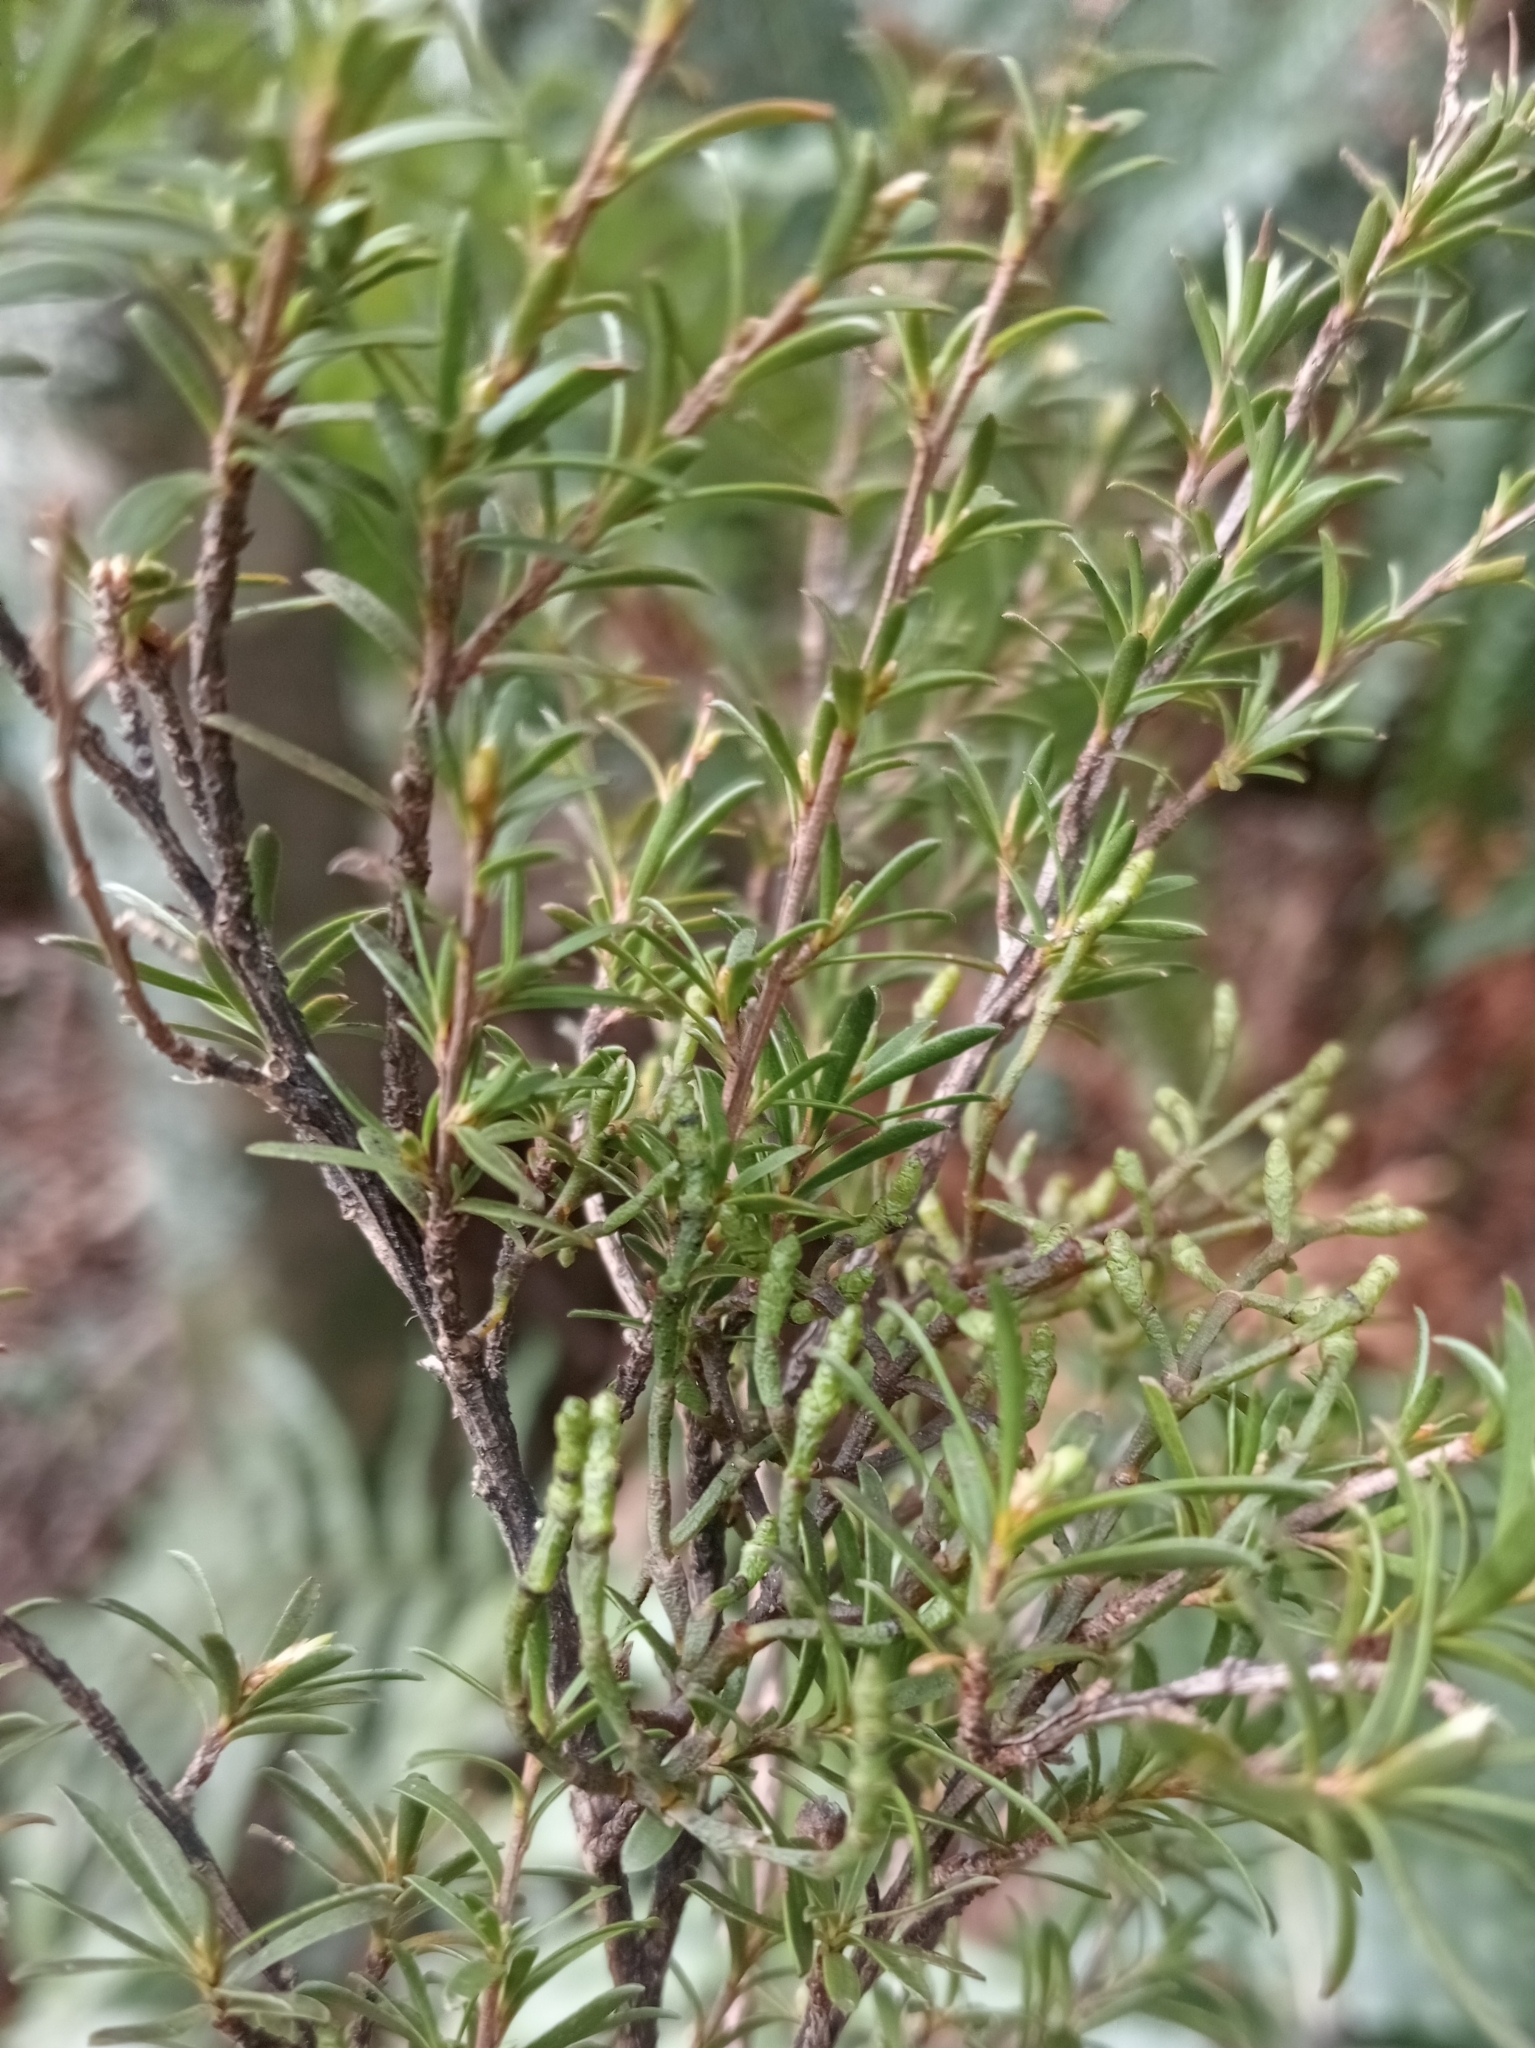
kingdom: Plantae
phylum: Tracheophyta
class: Magnoliopsida
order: Santalales
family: Viscaceae
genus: Korthalsella
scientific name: Korthalsella salicornioides
